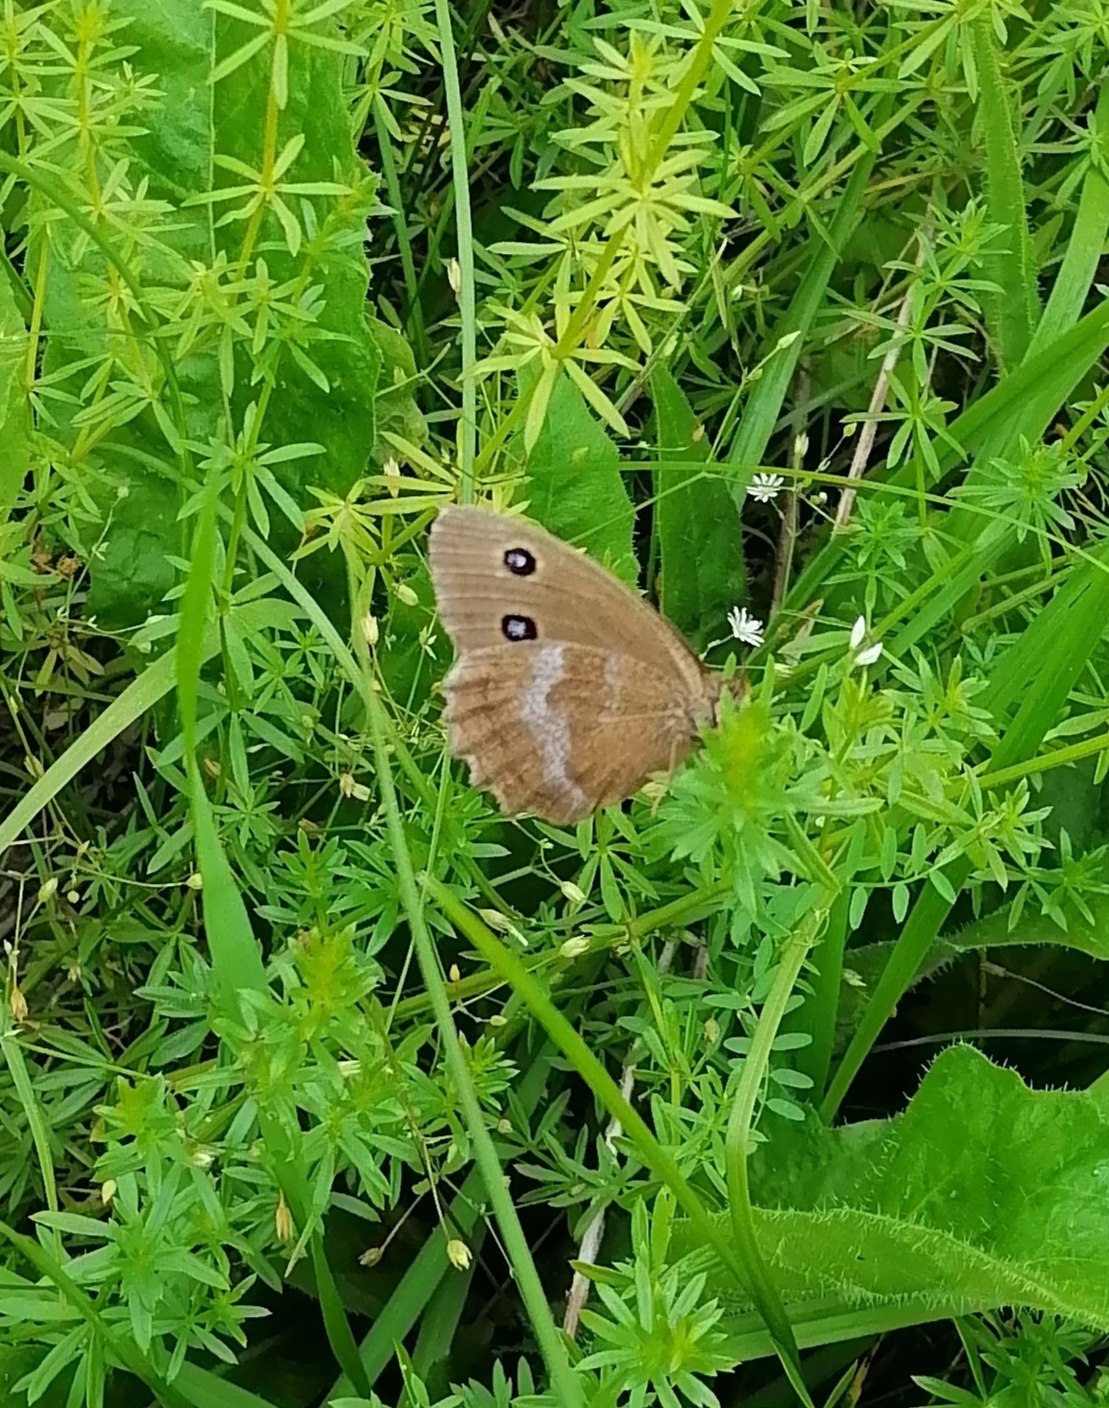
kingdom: Animalia
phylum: Arthropoda
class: Insecta
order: Lepidoptera
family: Nymphalidae
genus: Minois
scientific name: Minois dryas
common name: Dryad
